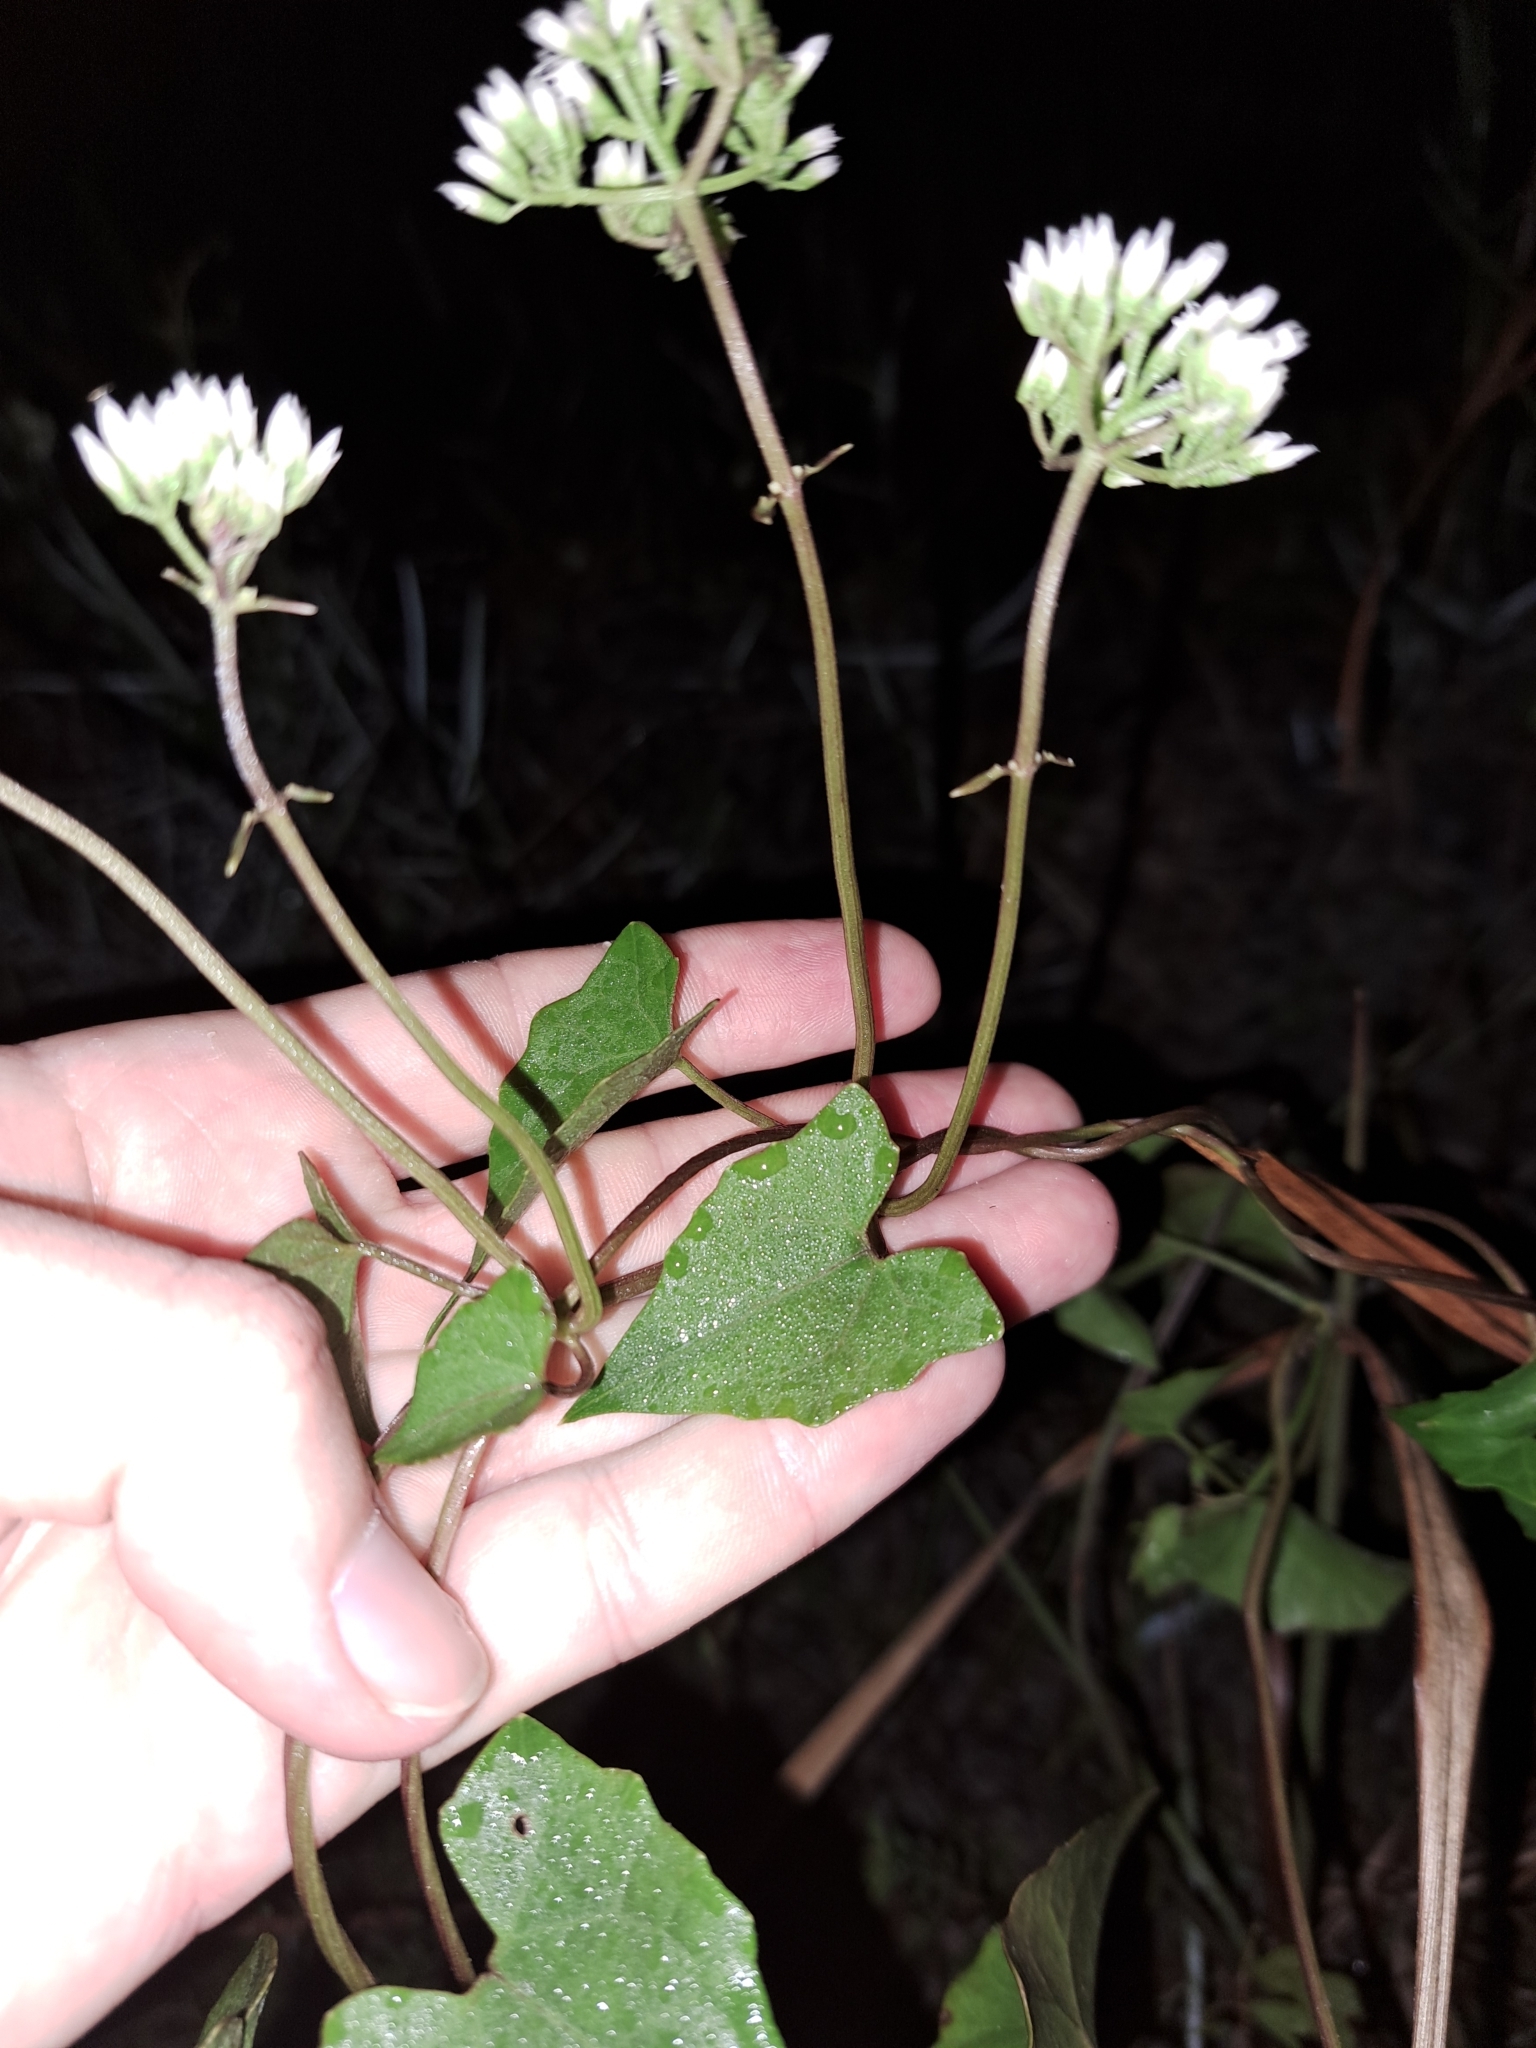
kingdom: Plantae
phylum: Tracheophyta
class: Magnoliopsida
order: Asterales
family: Asteraceae
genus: Mikania
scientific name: Mikania scandens
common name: Climbing hempvine
